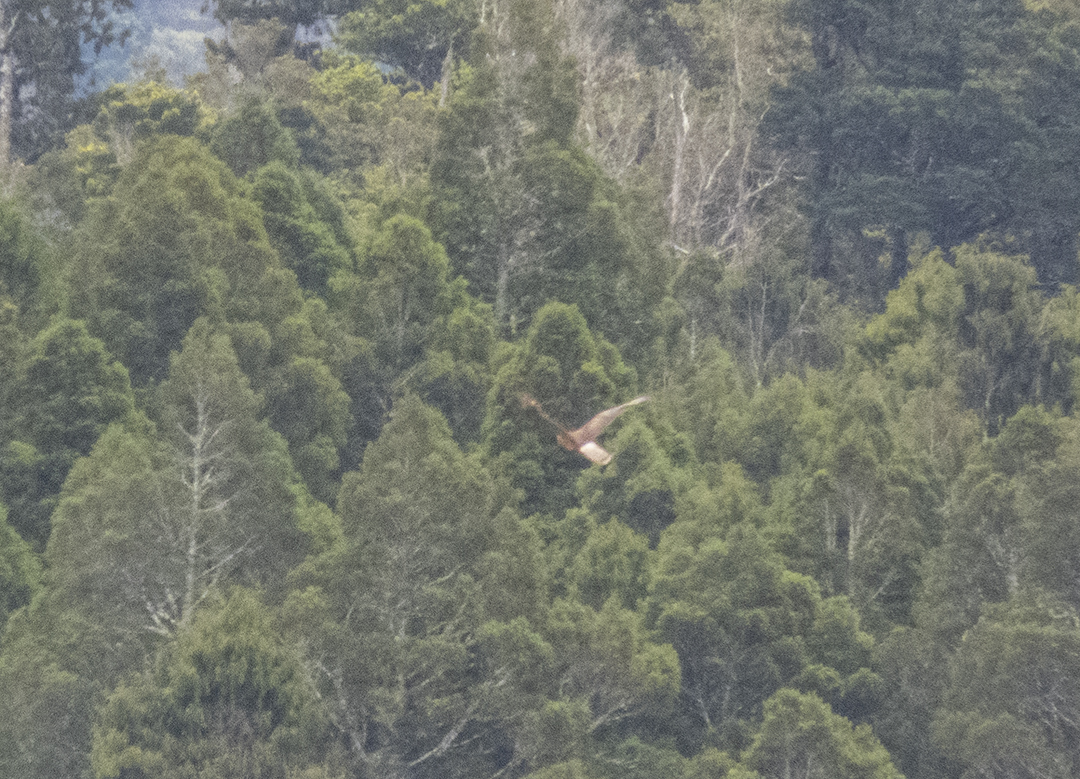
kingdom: Animalia
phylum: Chordata
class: Aves
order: Accipitriformes
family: Accipitridae
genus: Circus
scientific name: Circus approximans
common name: Swamp harrier
